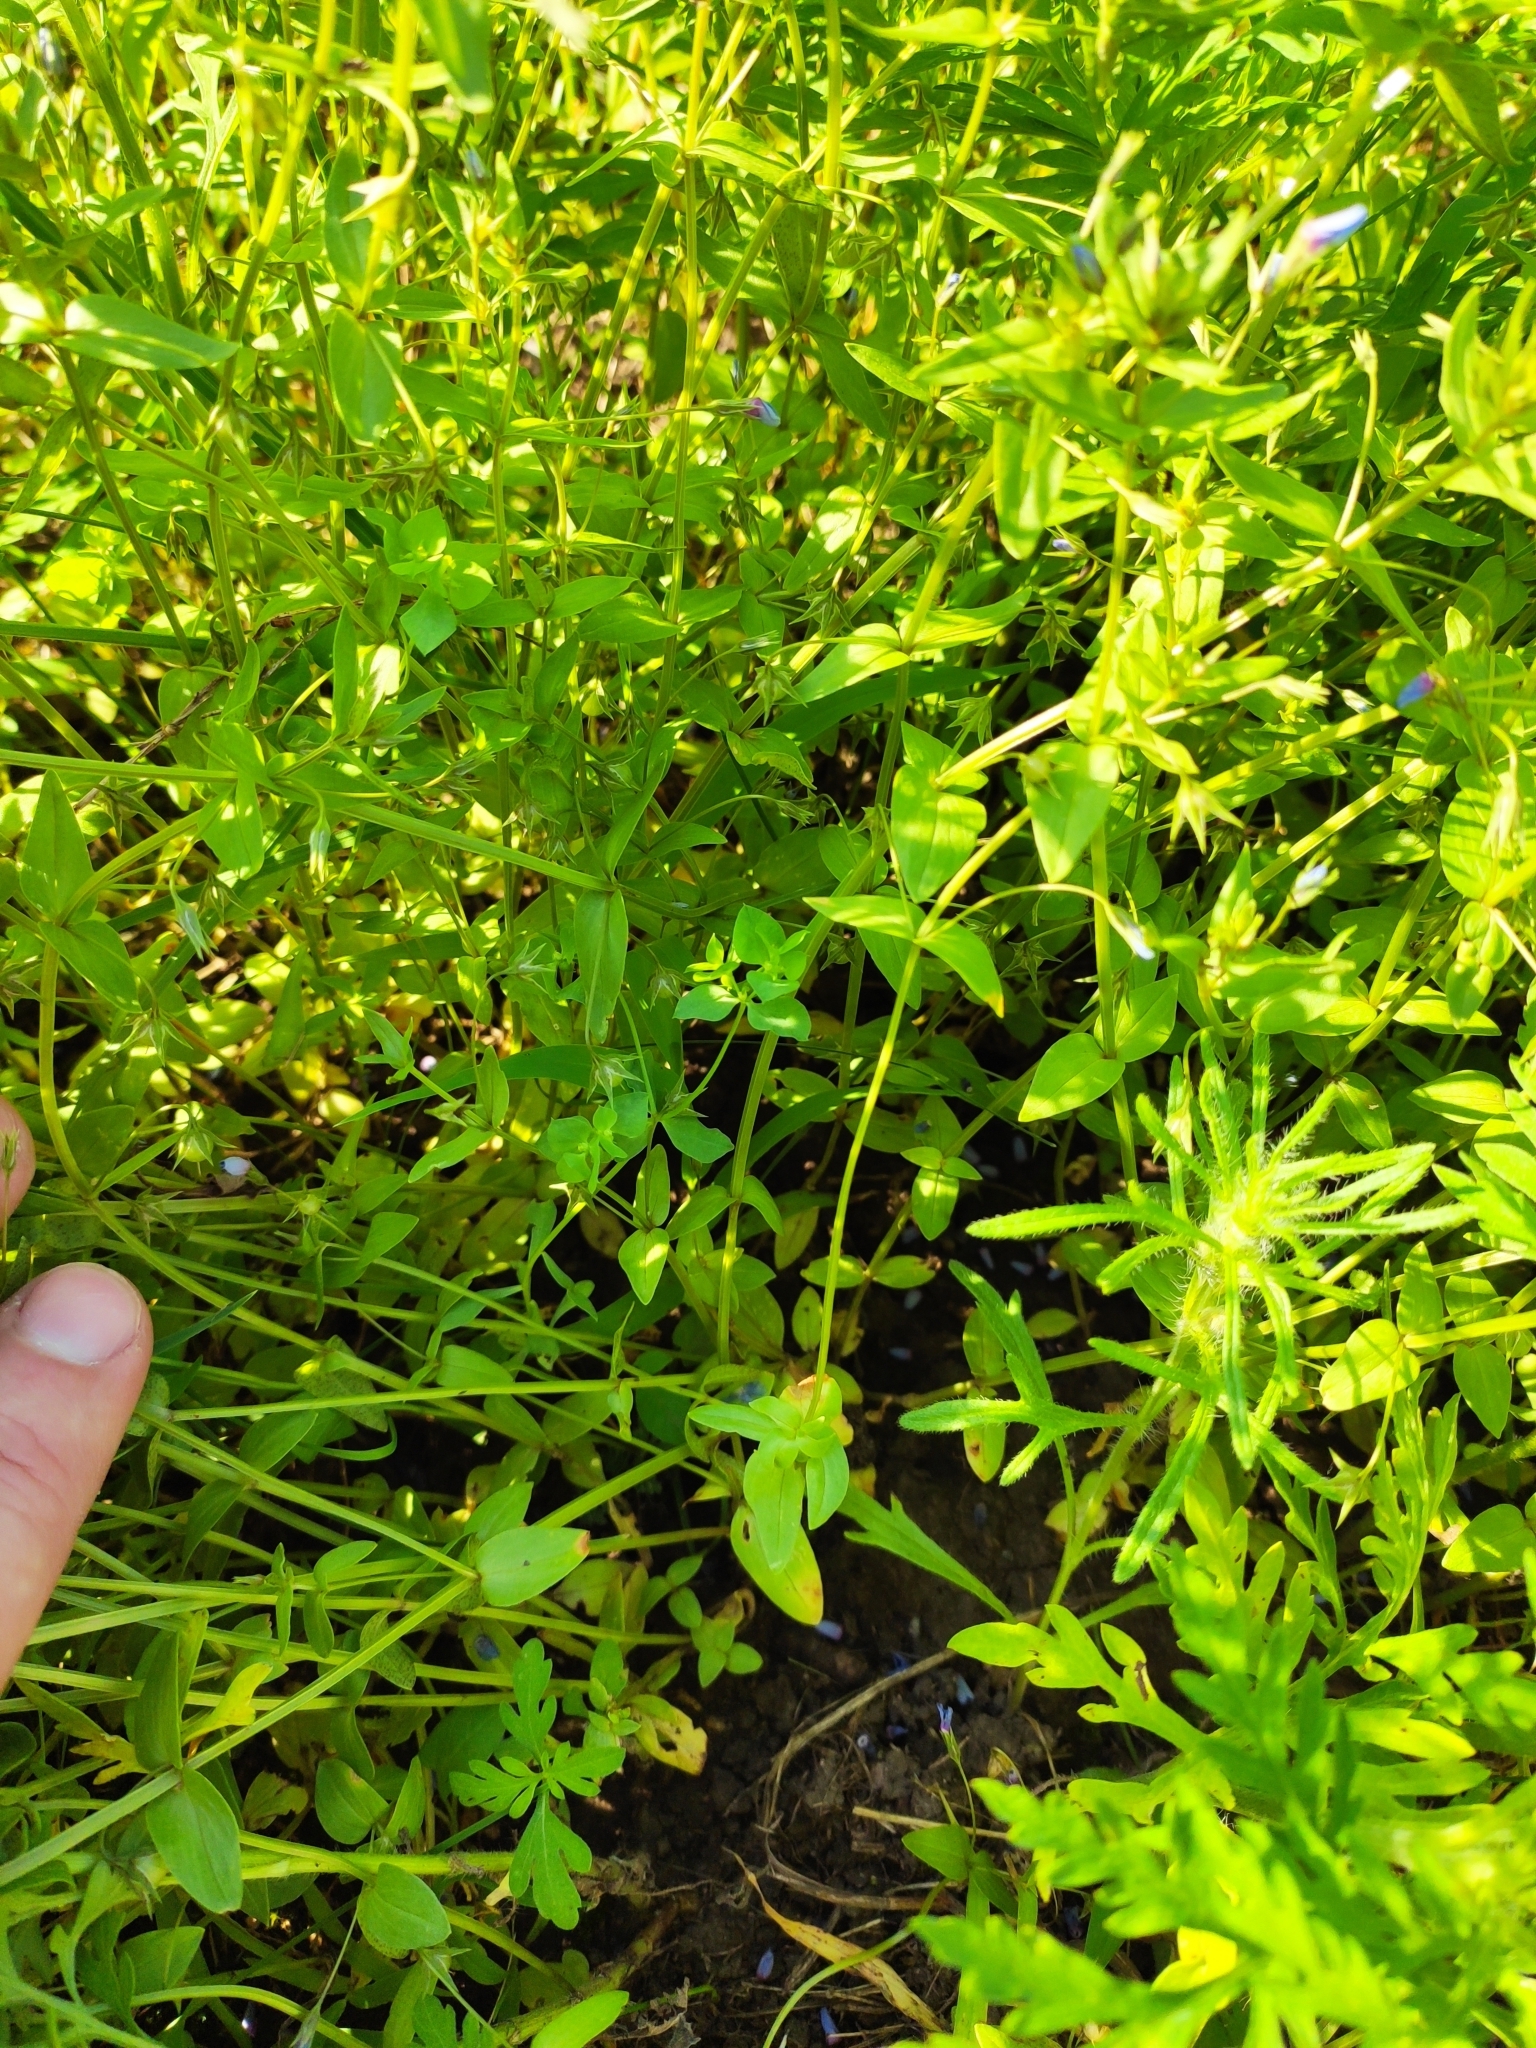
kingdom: Plantae
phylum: Tracheophyta
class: Magnoliopsida
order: Ericales
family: Primulaceae
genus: Lysimachia
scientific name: Lysimachia foemina
